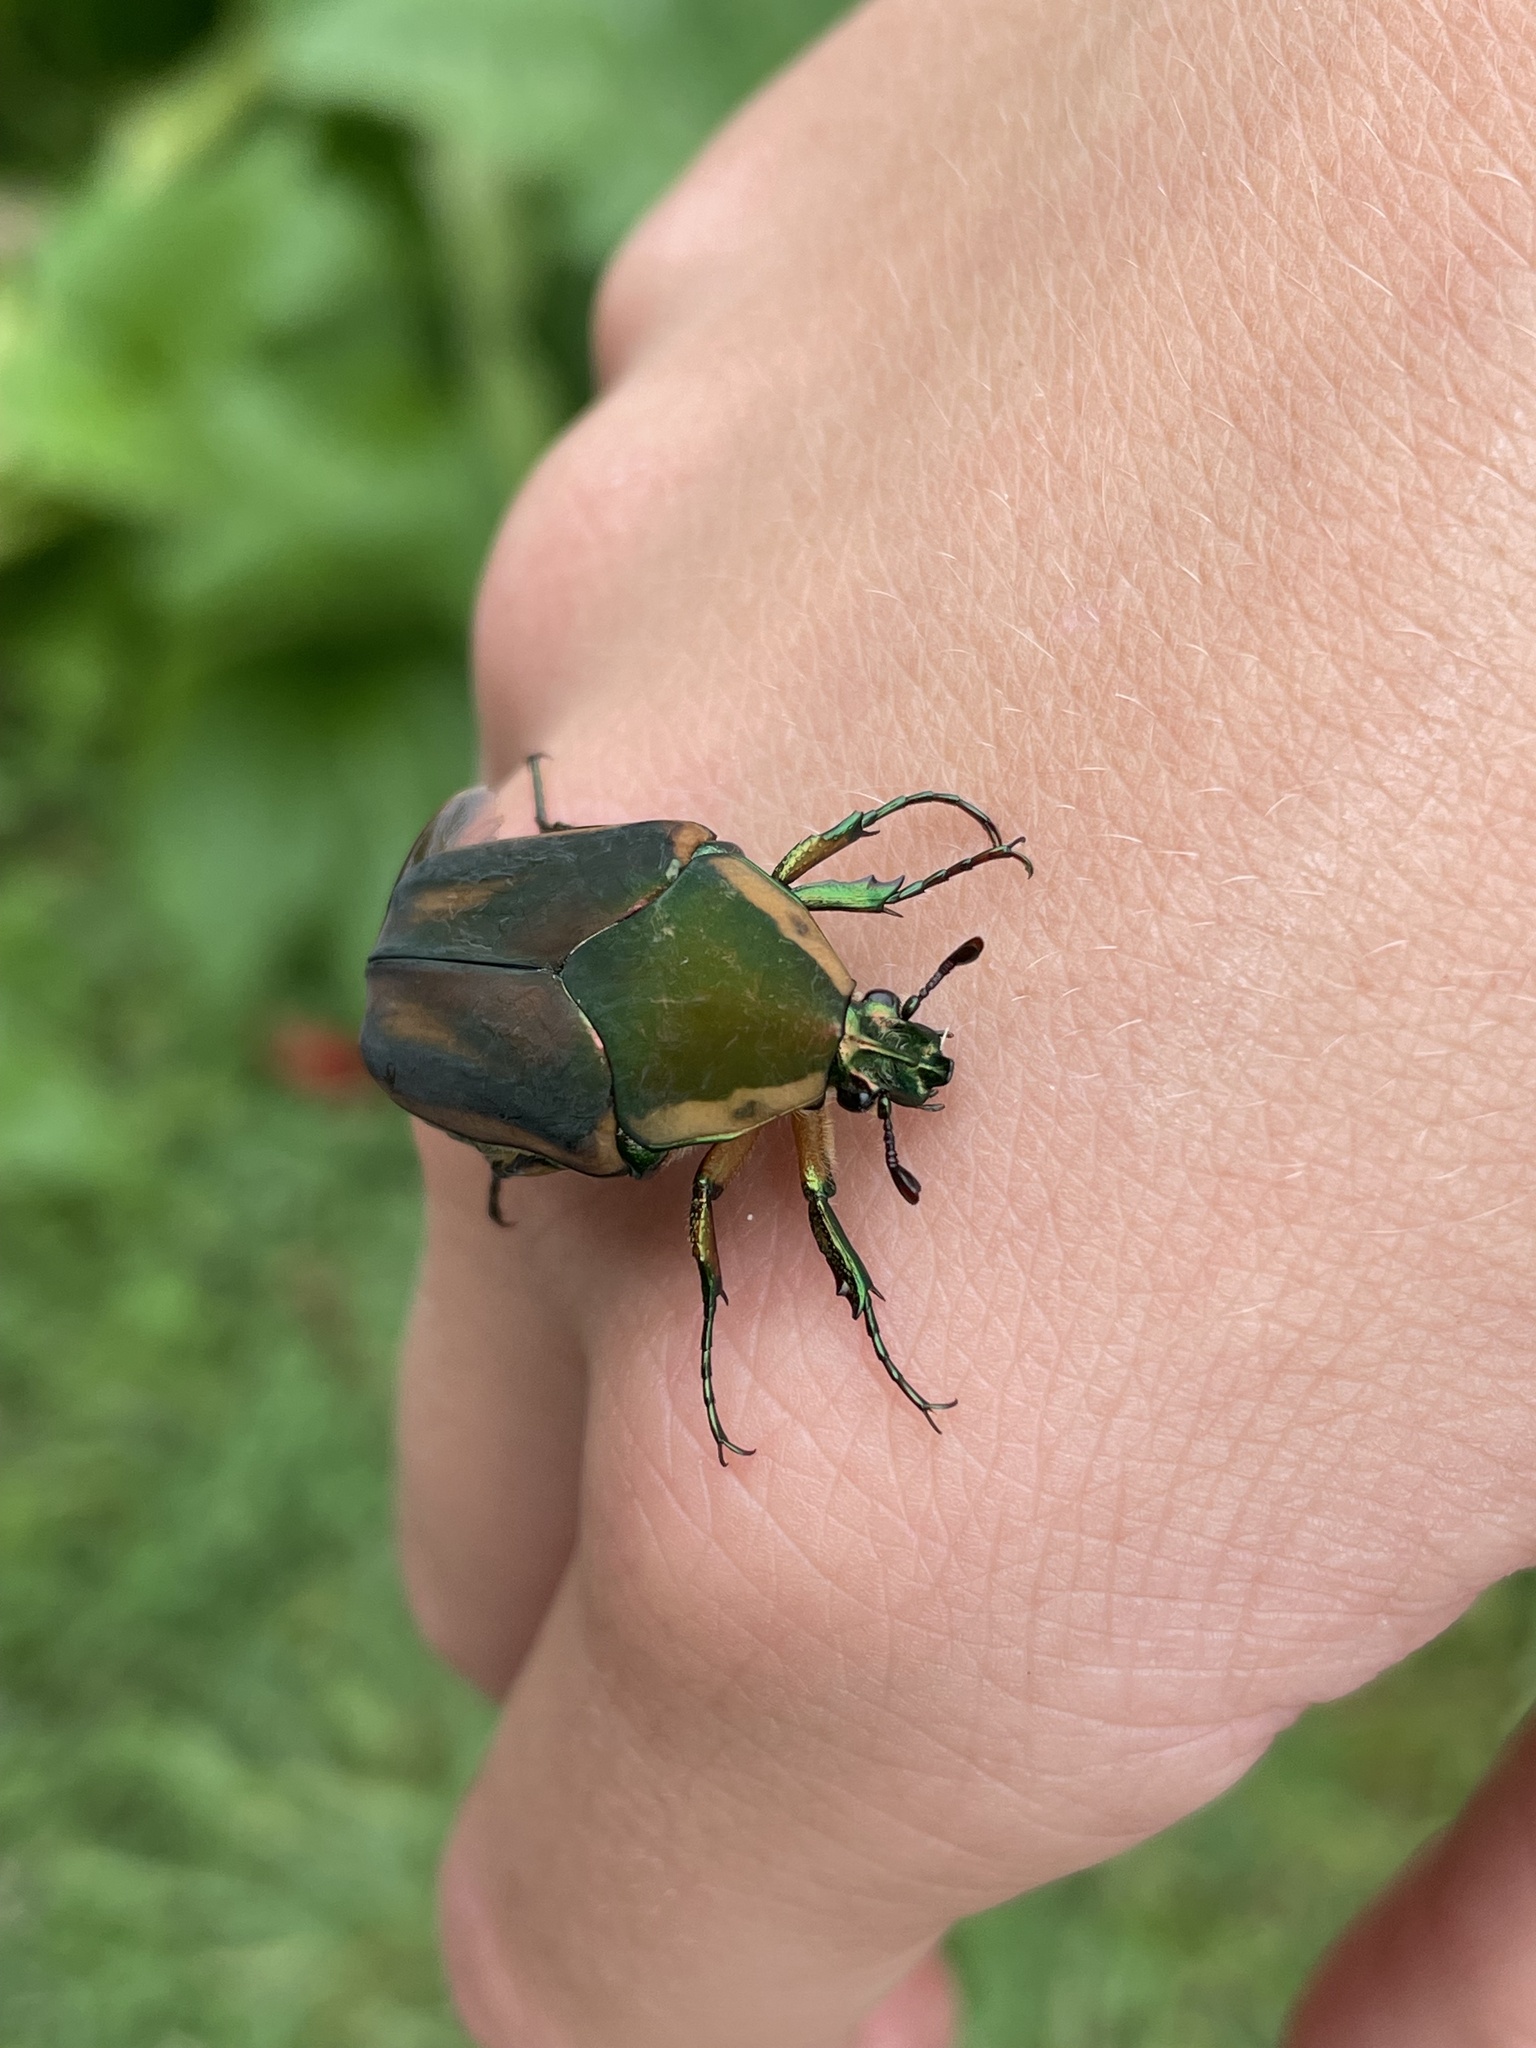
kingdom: Animalia
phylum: Arthropoda
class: Insecta
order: Coleoptera
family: Scarabaeidae
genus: Cotinis
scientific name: Cotinis nitida
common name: Common green june beetle
